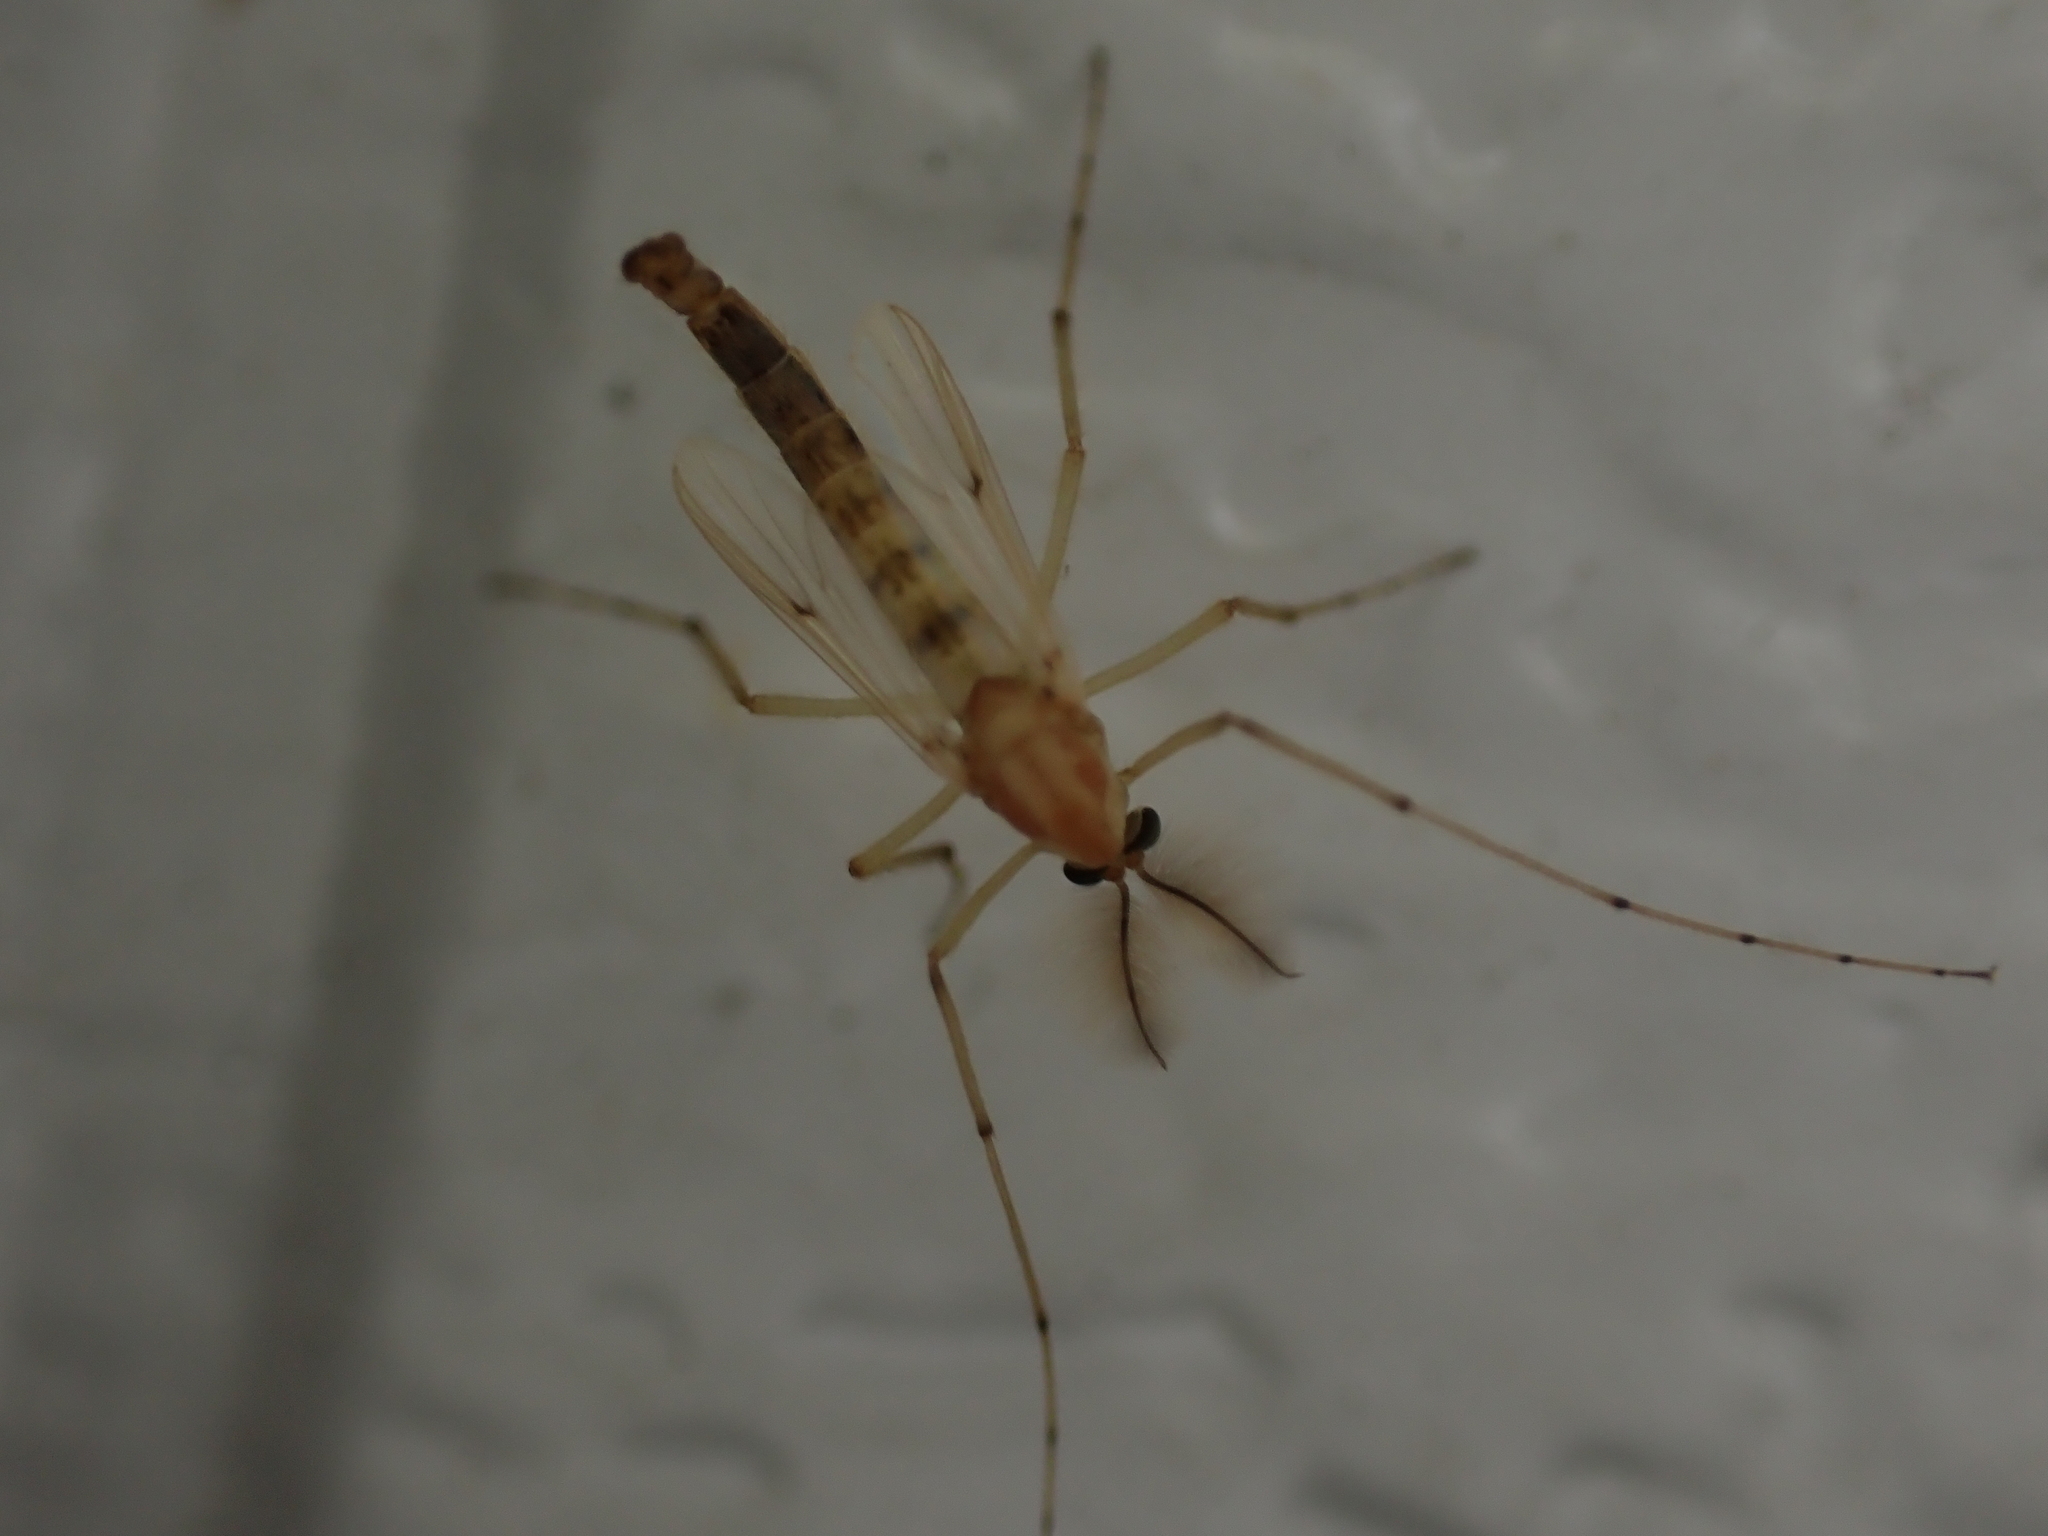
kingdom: Animalia
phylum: Arthropoda
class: Insecta
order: Diptera
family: Chironomidae
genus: Chironomus
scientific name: Chironomus crassicaudatus
